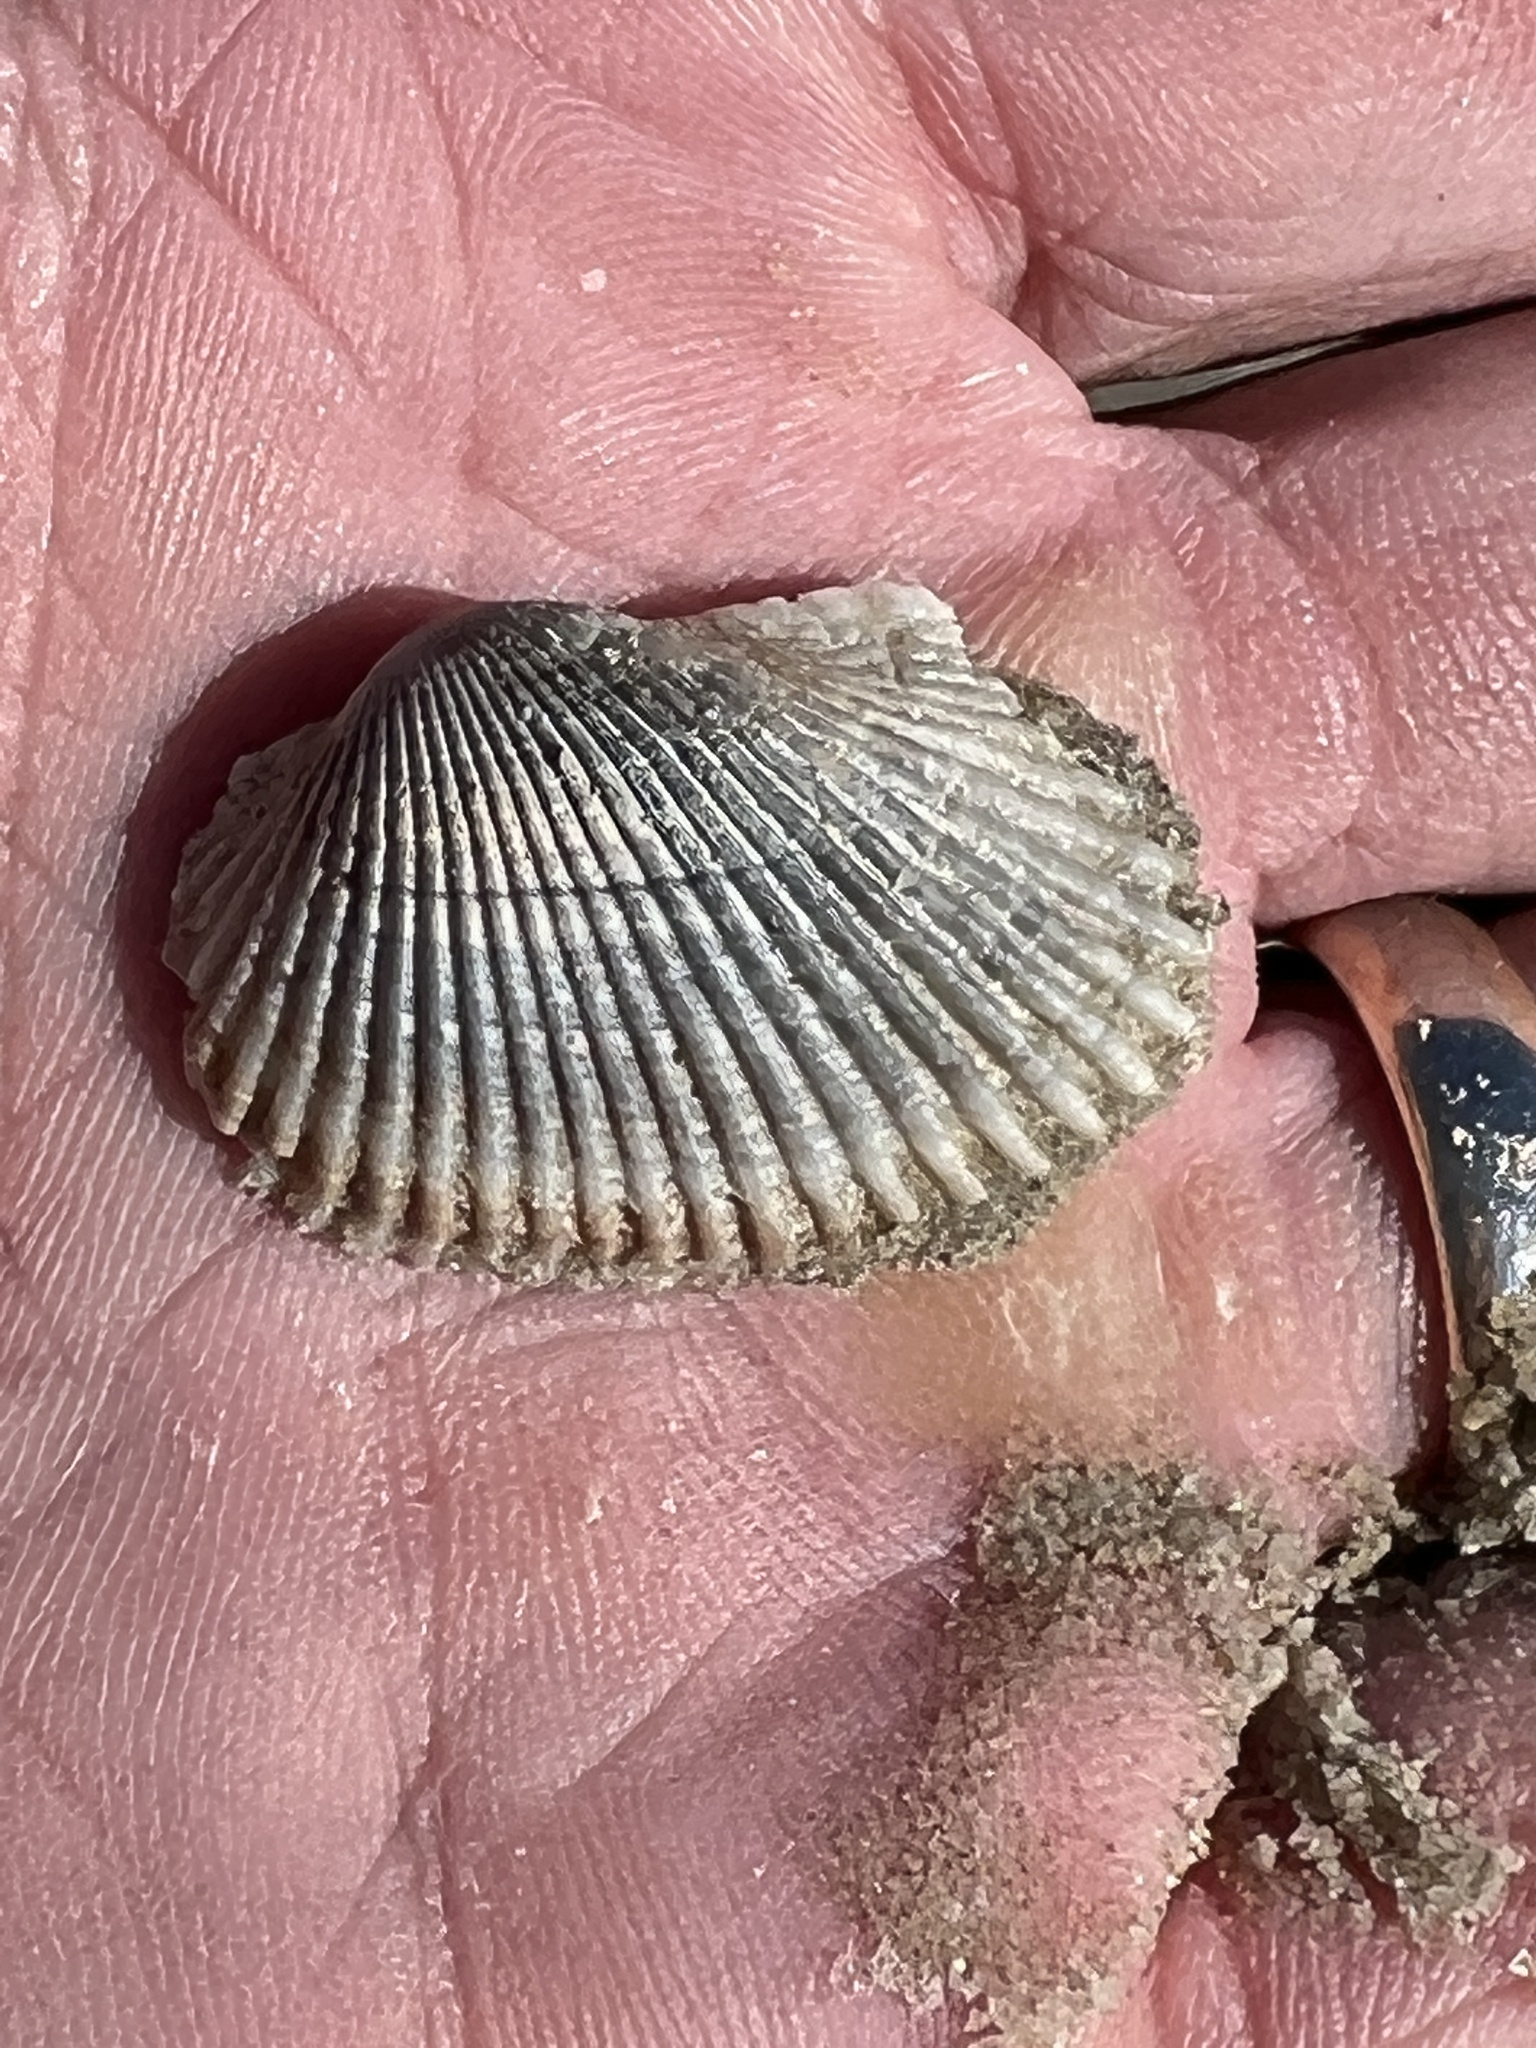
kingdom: Animalia
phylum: Mollusca
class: Bivalvia
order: Arcida
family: Arcidae
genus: Anadara
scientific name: Anadara transversa
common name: Transverse ark
